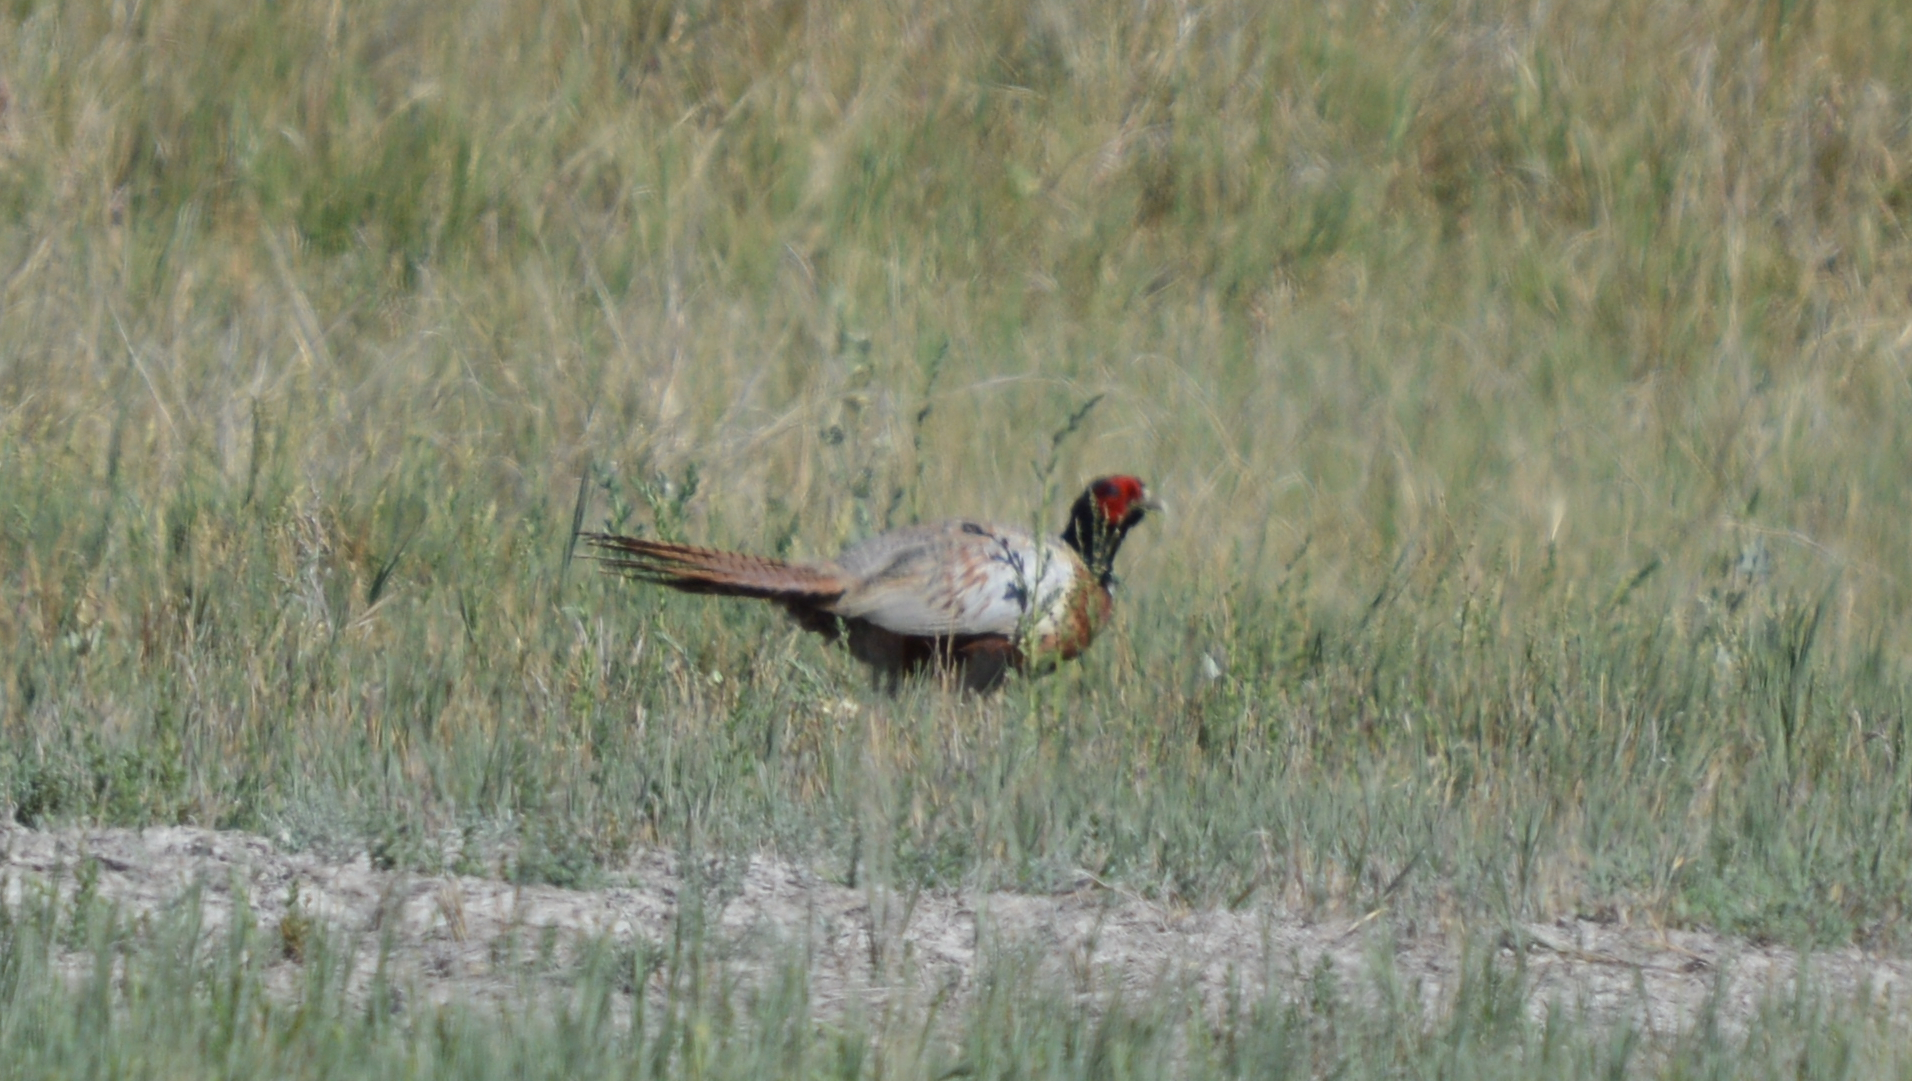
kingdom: Animalia
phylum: Chordata
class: Aves
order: Galliformes
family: Phasianidae
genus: Phasianus
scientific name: Phasianus colchicus
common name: Common pheasant
